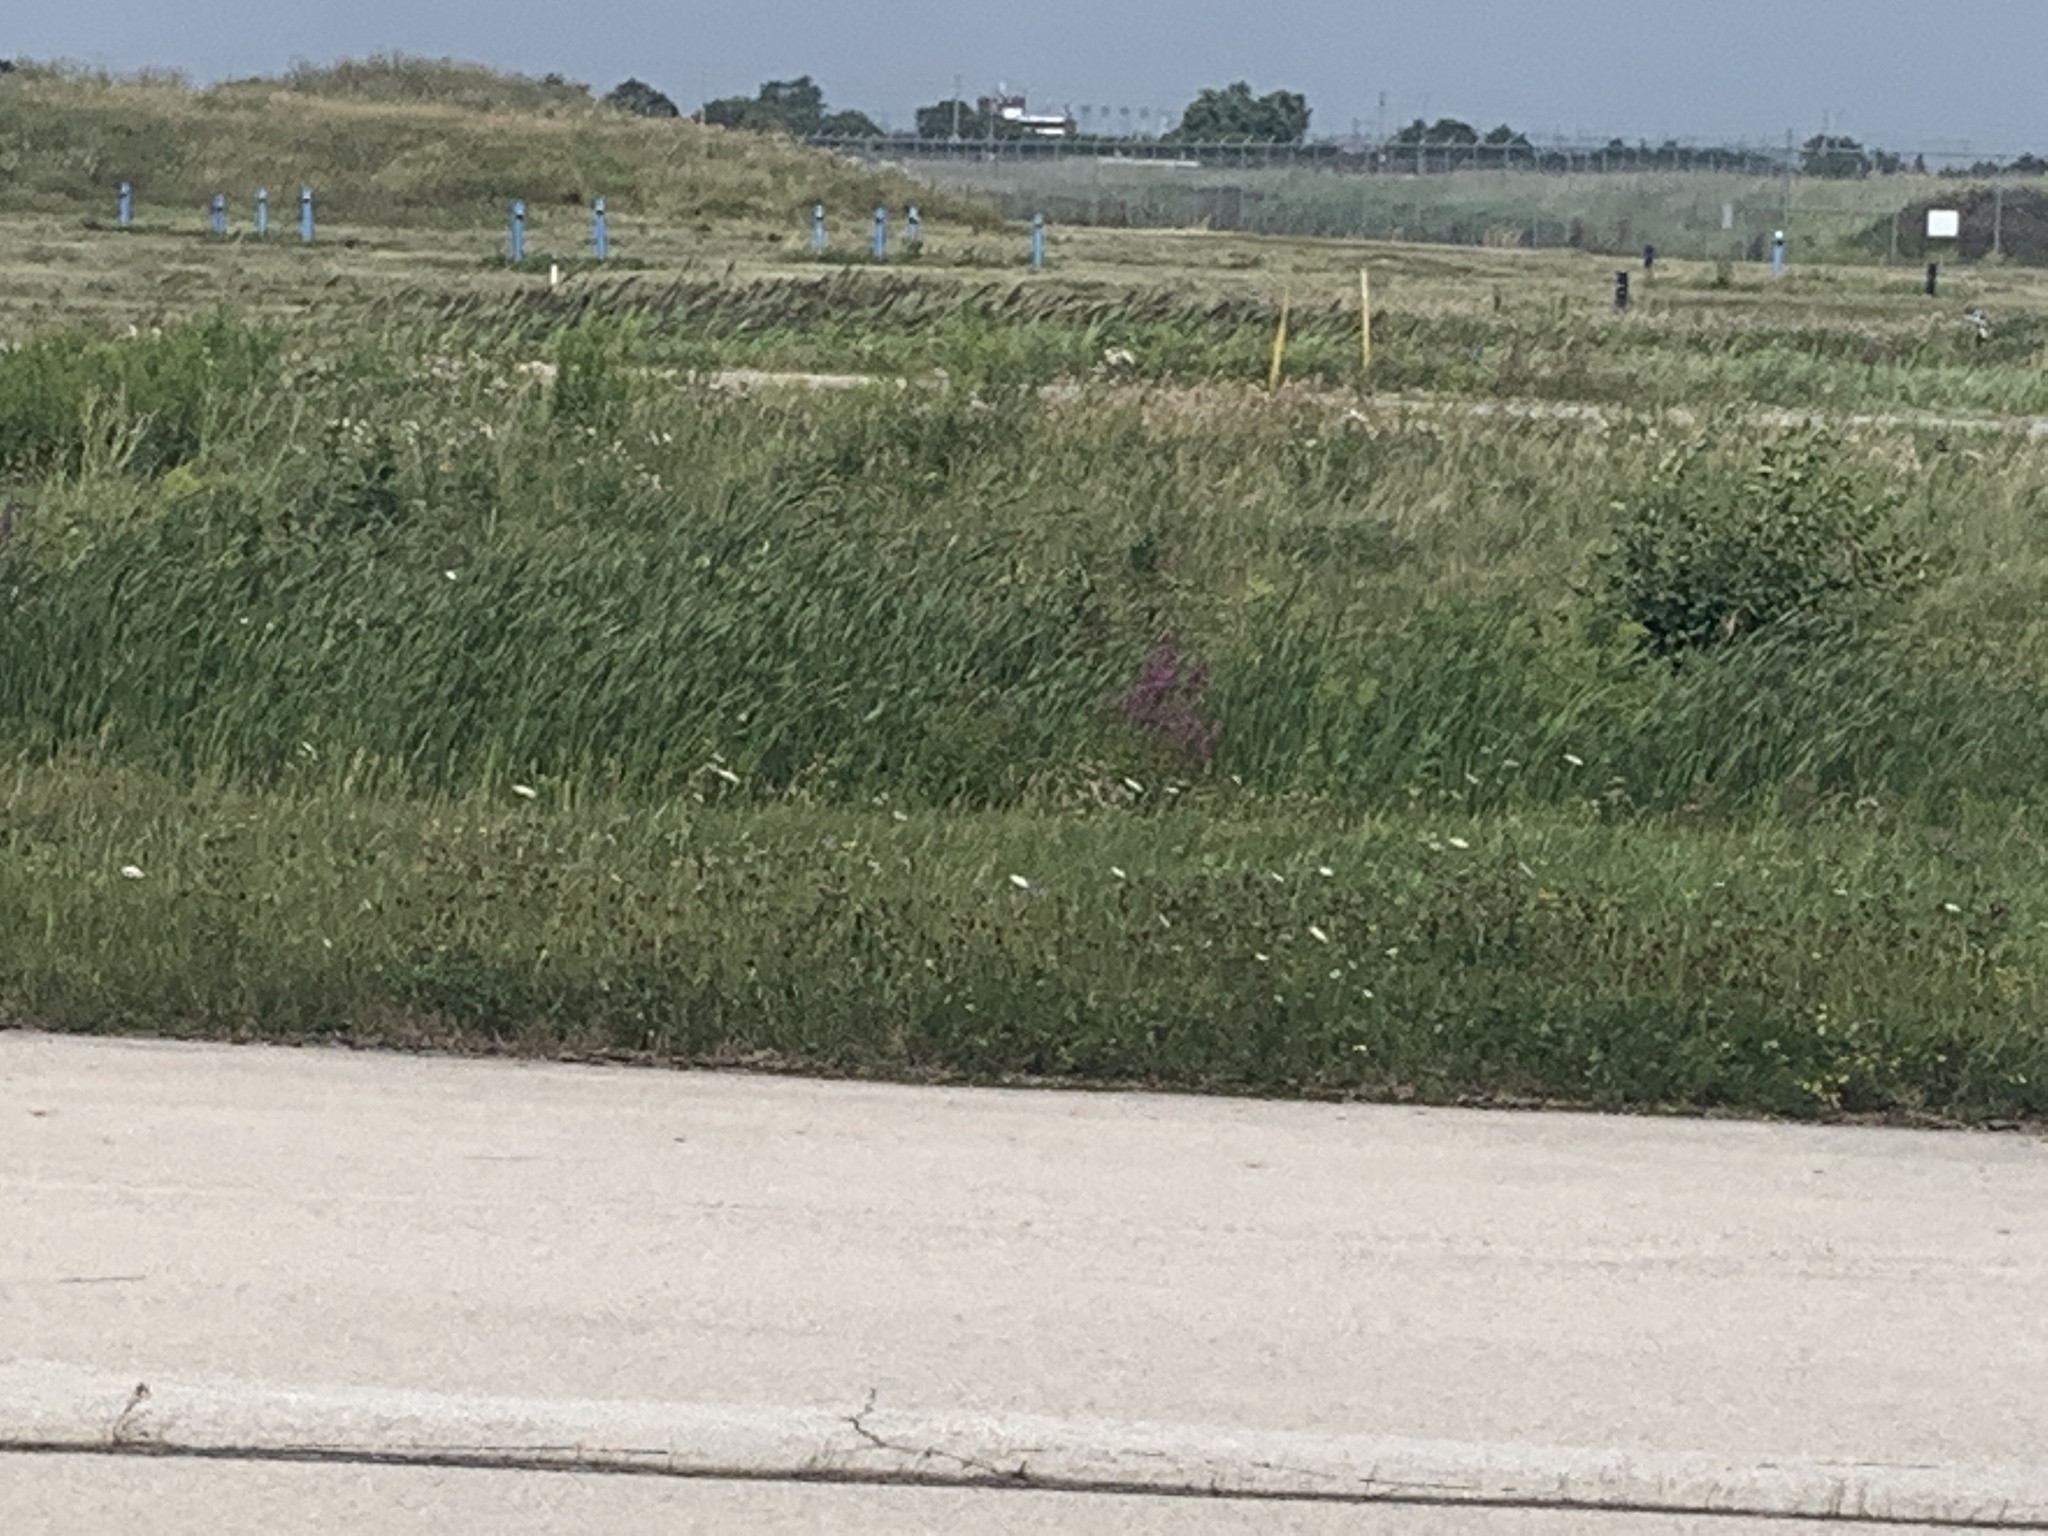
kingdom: Plantae
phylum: Tracheophyta
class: Magnoliopsida
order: Myrtales
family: Lythraceae
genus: Lythrum
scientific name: Lythrum salicaria
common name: Purple loosestrife
